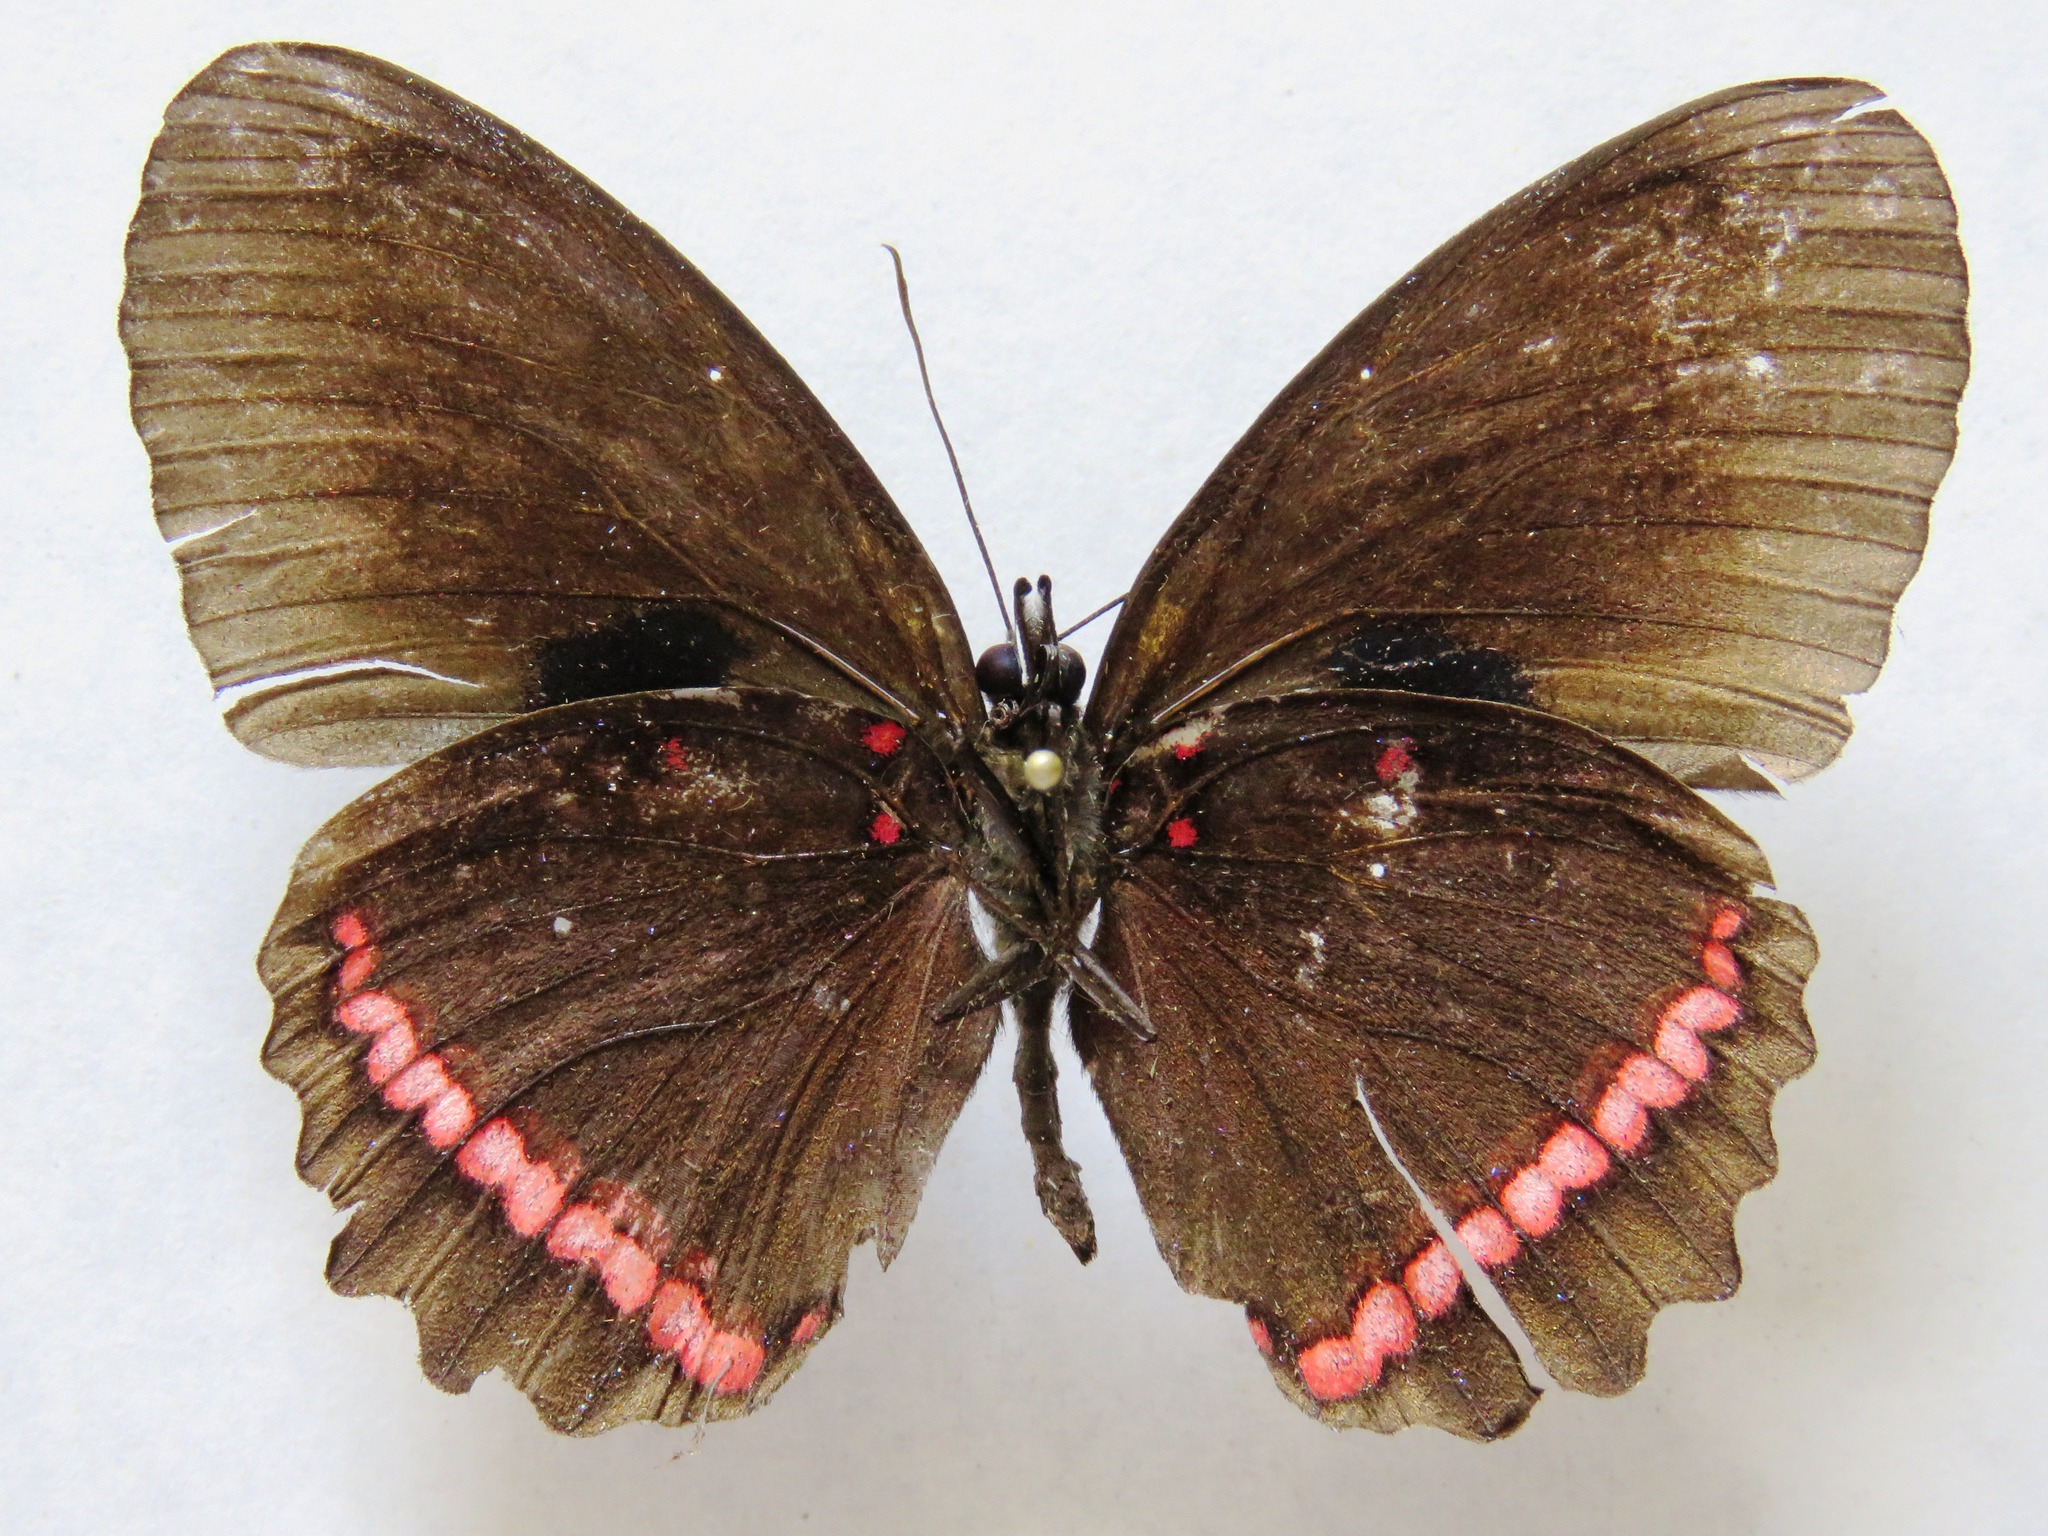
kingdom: Animalia
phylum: Arthropoda
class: Insecta
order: Lepidoptera
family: Nymphalidae
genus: Biblis
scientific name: Biblis aganisa
